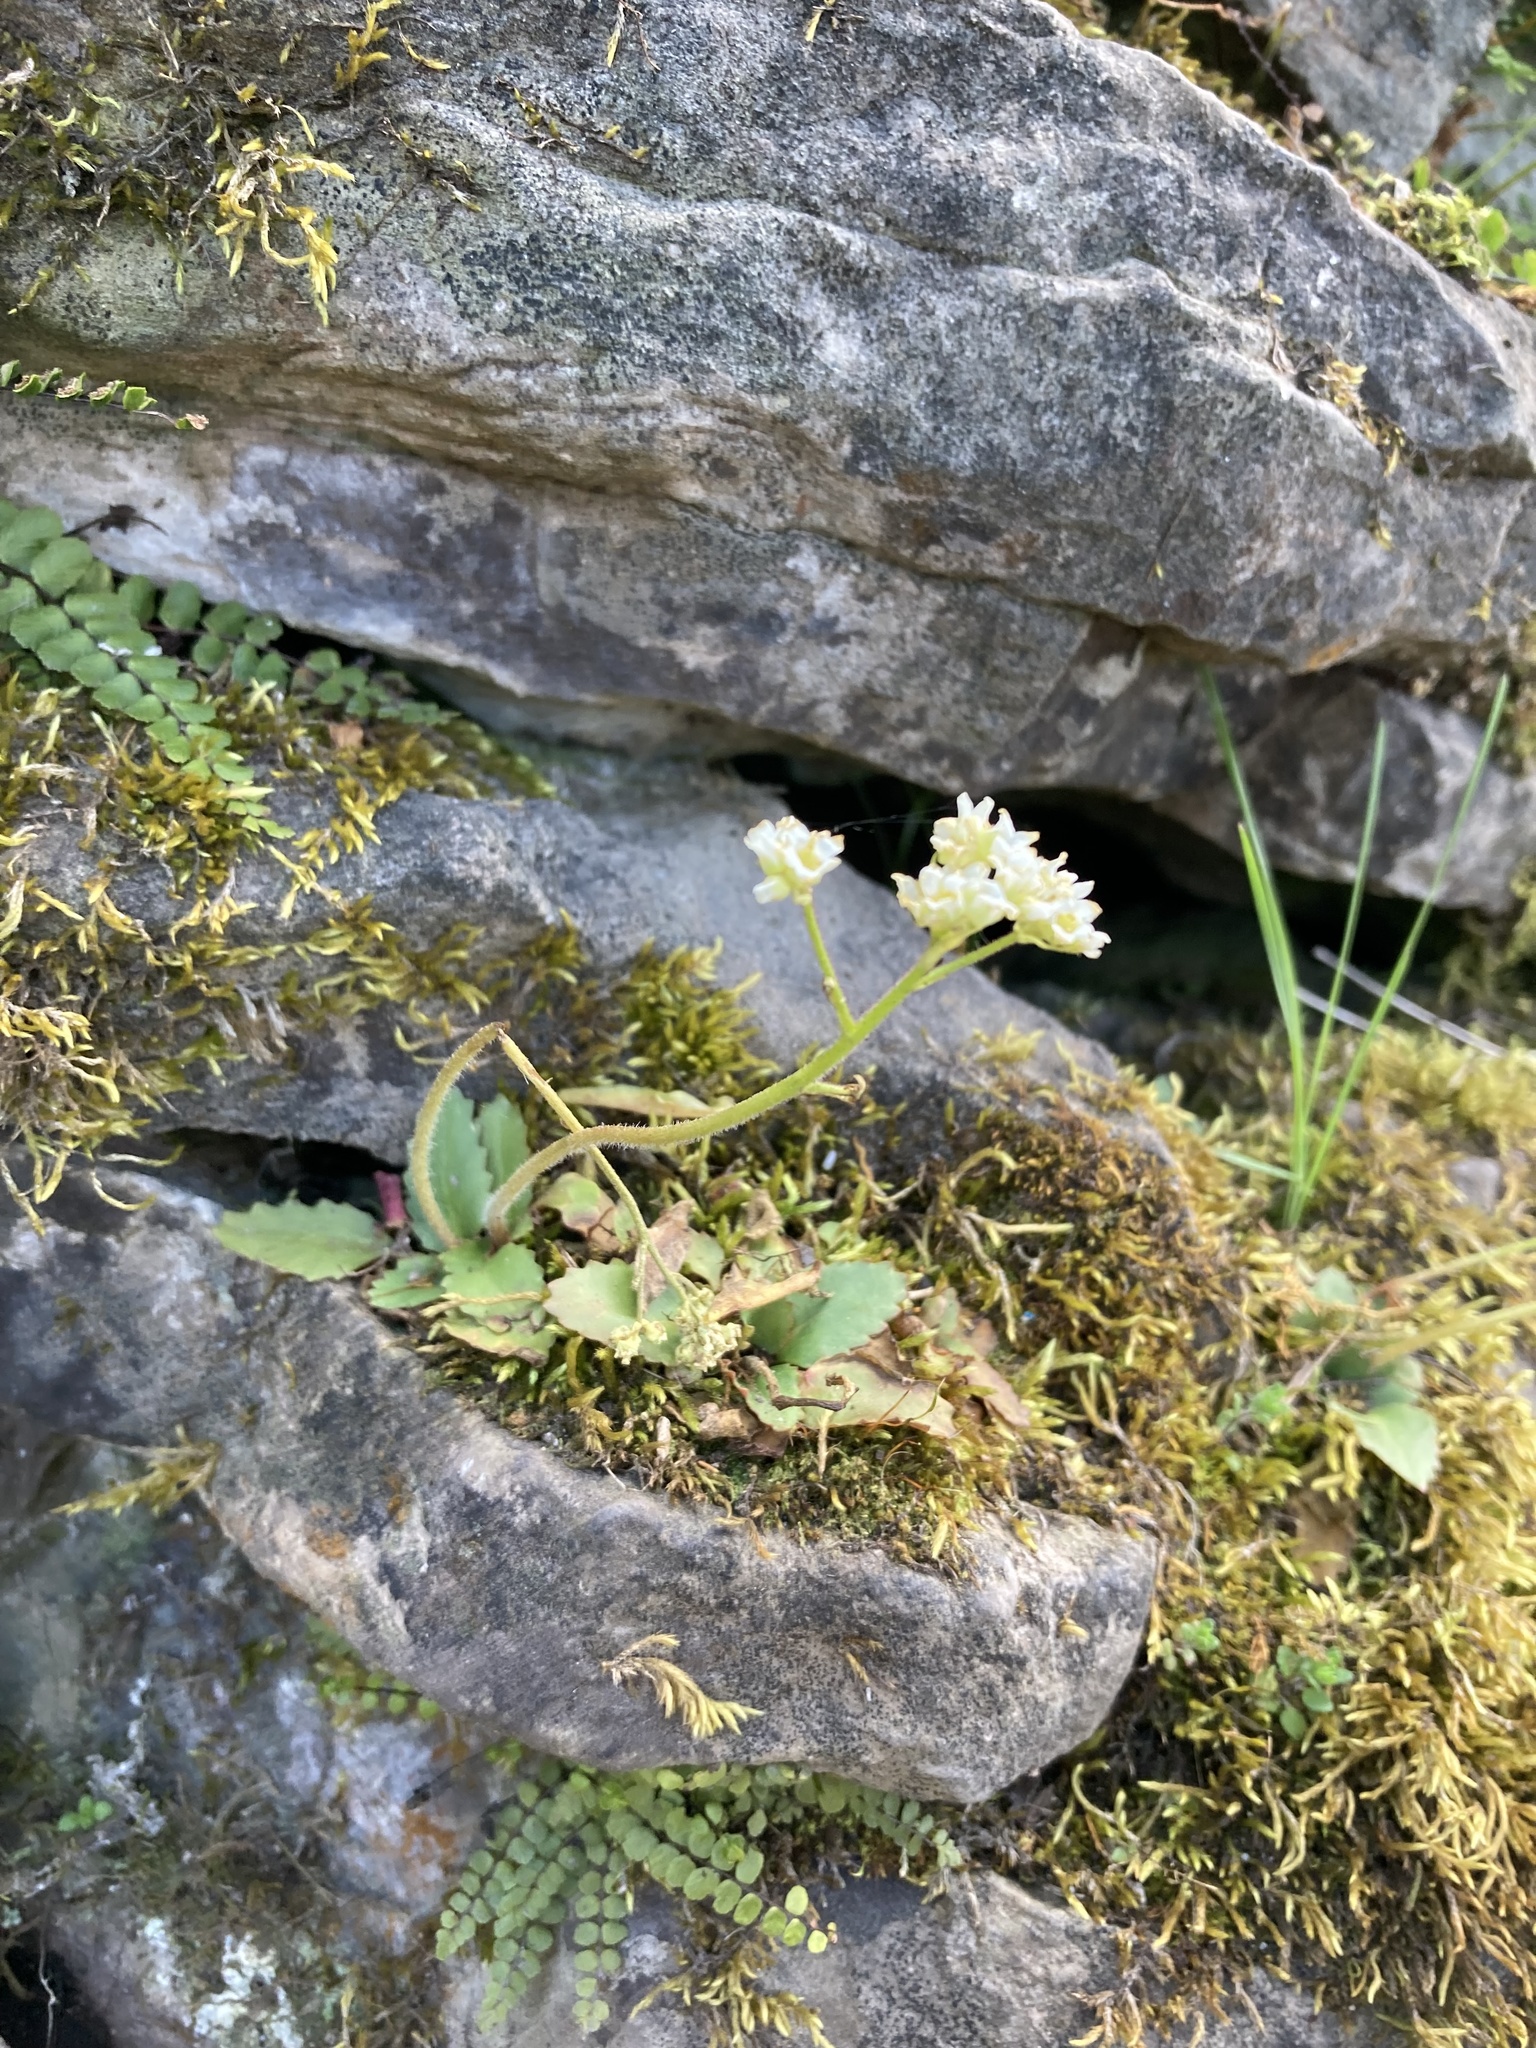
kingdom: Plantae
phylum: Tracheophyta
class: Magnoliopsida
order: Saxifragales
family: Saxifragaceae
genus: Micranthes
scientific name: Micranthes virginiensis
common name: Early saxifrage
